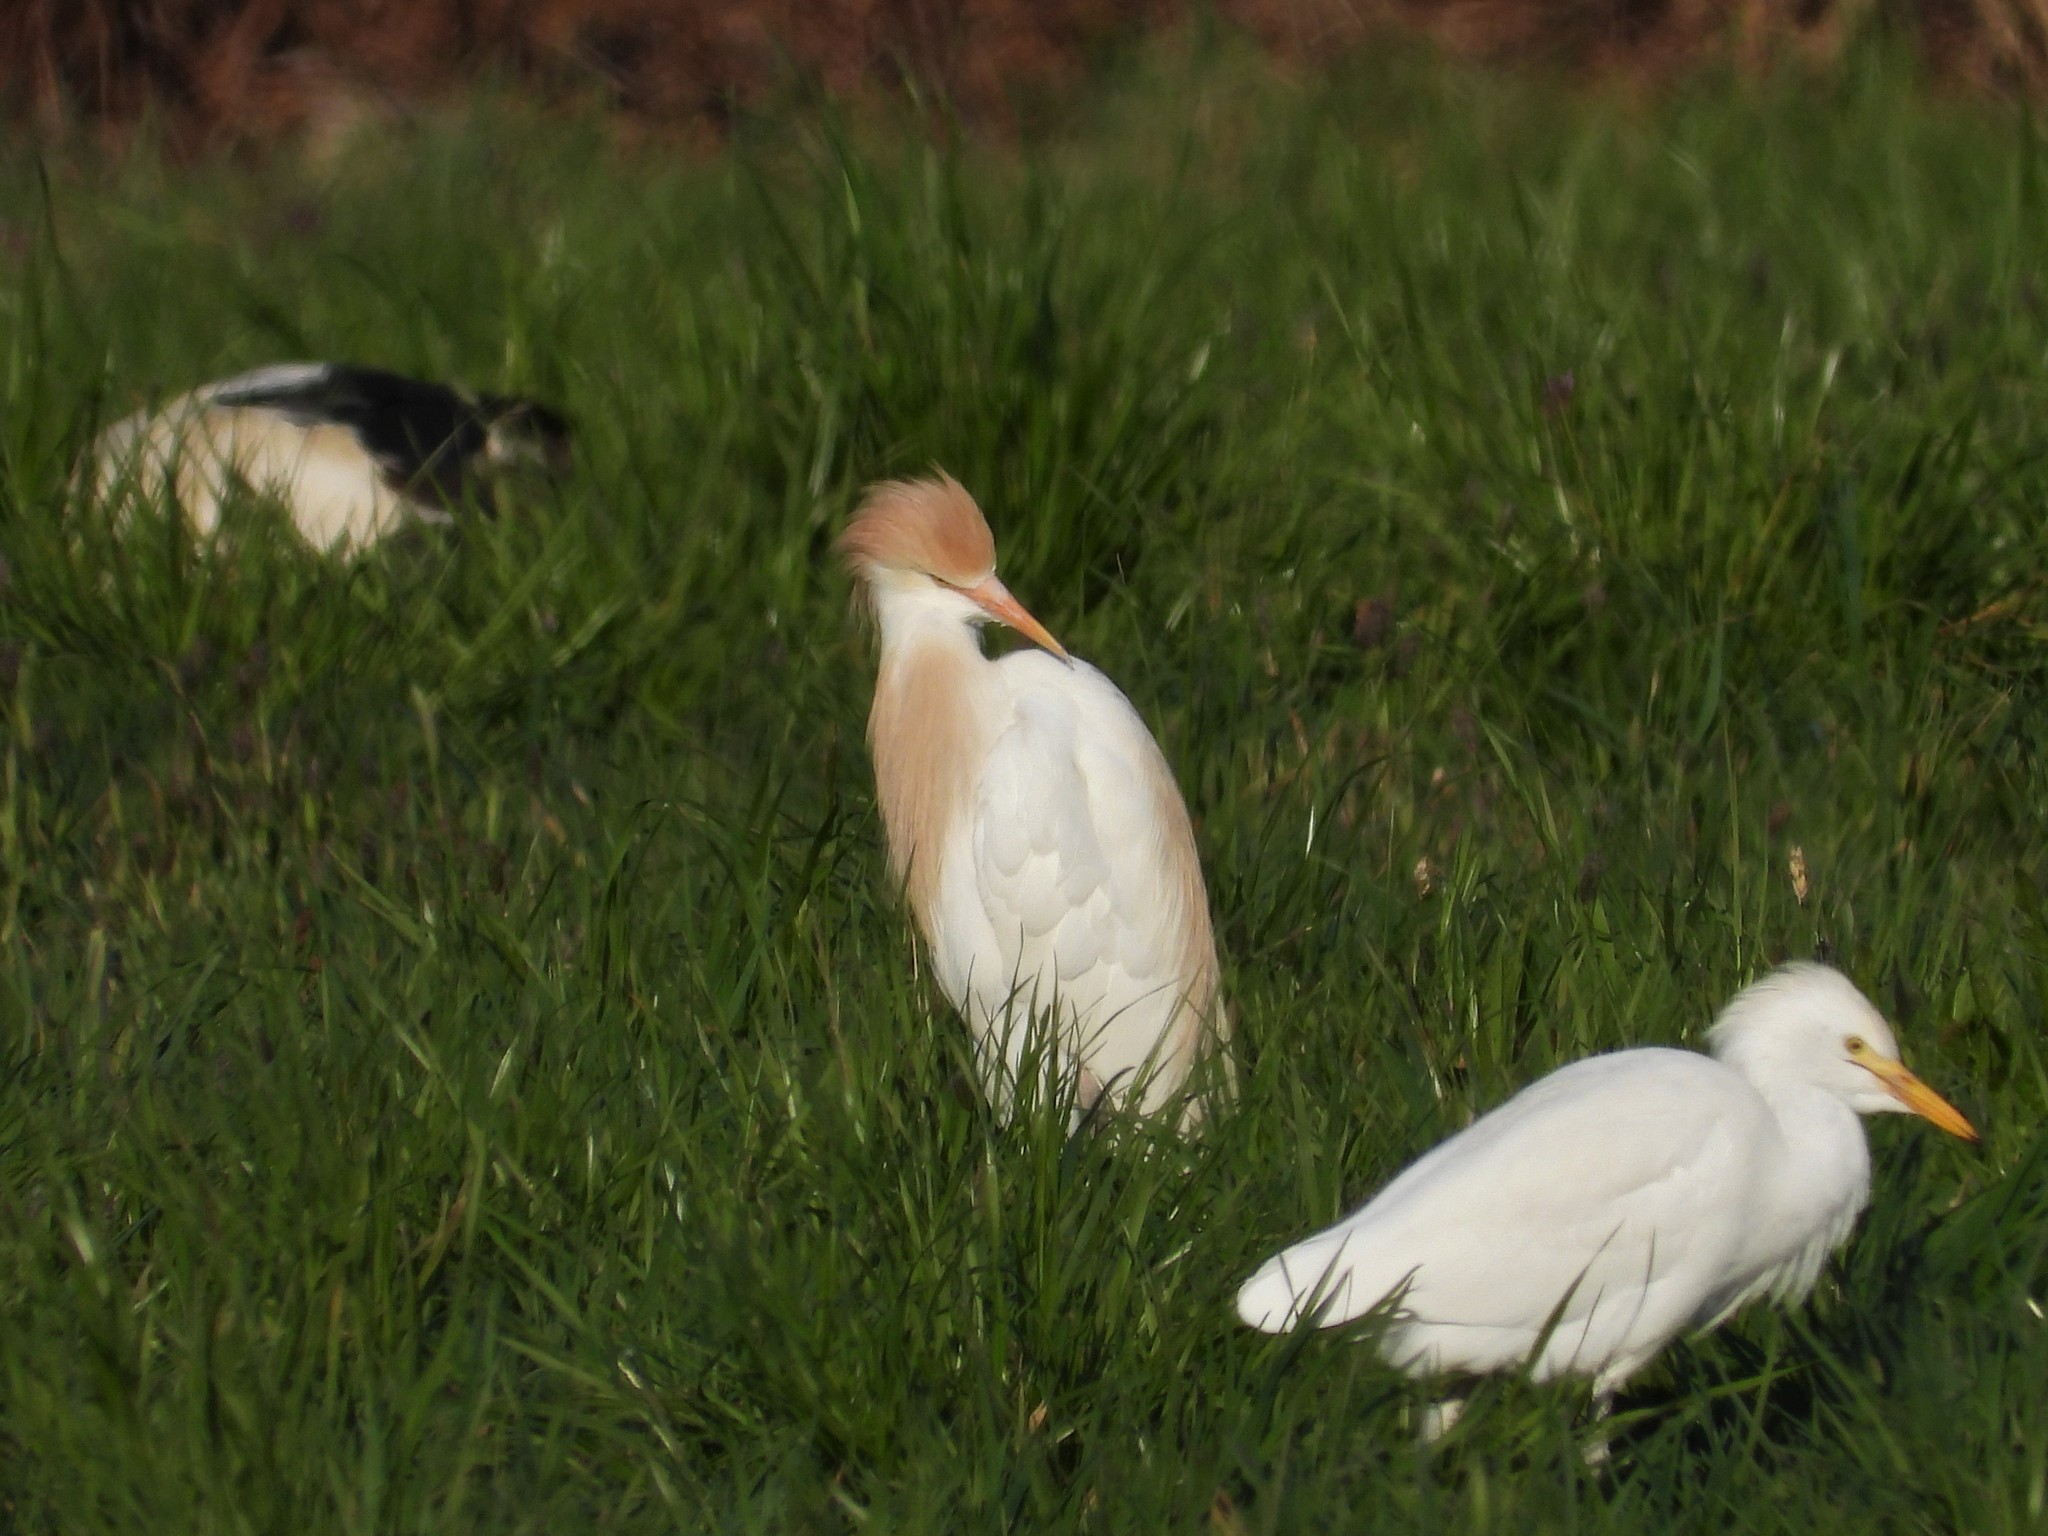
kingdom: Animalia
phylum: Chordata
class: Aves
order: Pelecaniformes
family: Ardeidae
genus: Bubulcus
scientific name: Bubulcus ibis
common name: Cattle egret
